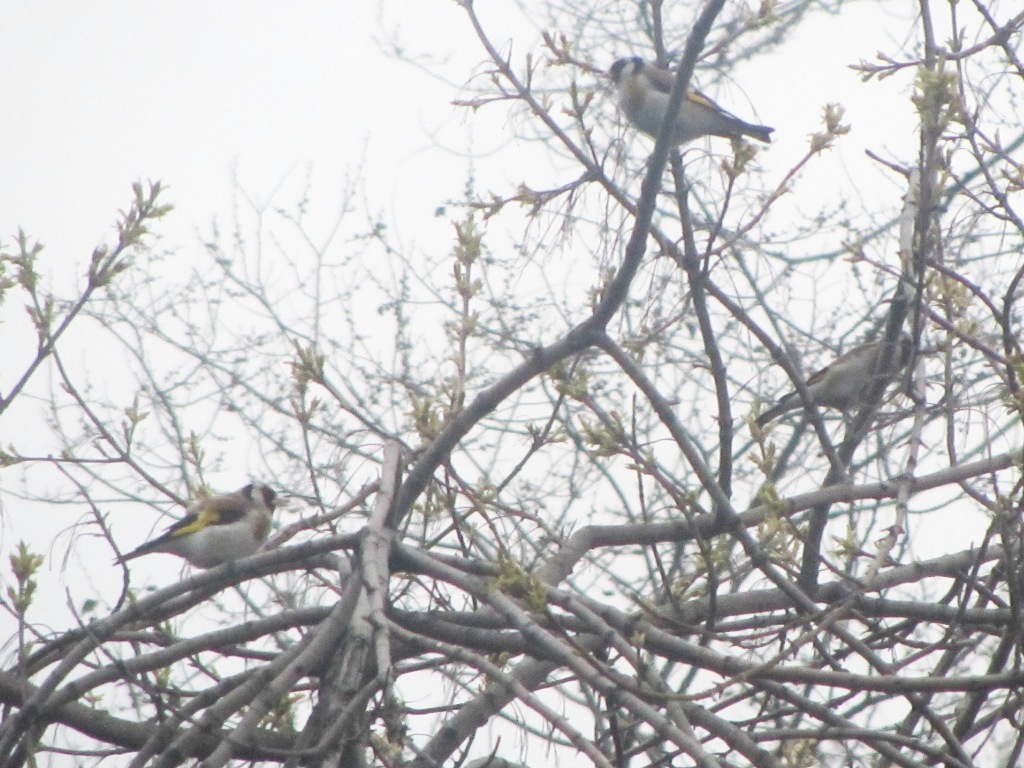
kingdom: Animalia
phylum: Chordata
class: Aves
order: Passeriformes
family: Fringillidae
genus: Carduelis
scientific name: Carduelis carduelis
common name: European goldfinch
